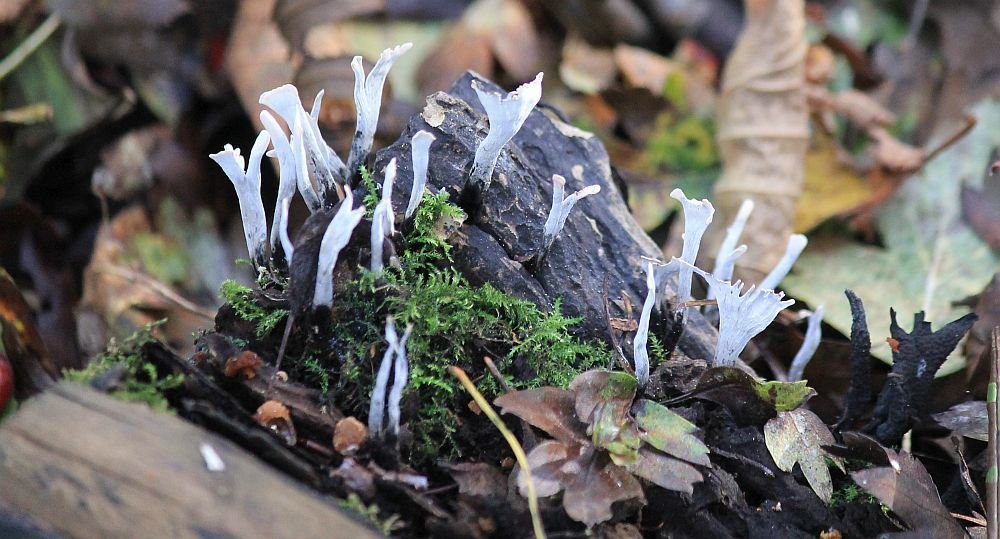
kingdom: Fungi
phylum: Ascomycota
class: Sordariomycetes
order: Xylariales
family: Xylariaceae
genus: Xylaria
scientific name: Xylaria hypoxylon
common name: Candle-snuff fungus
